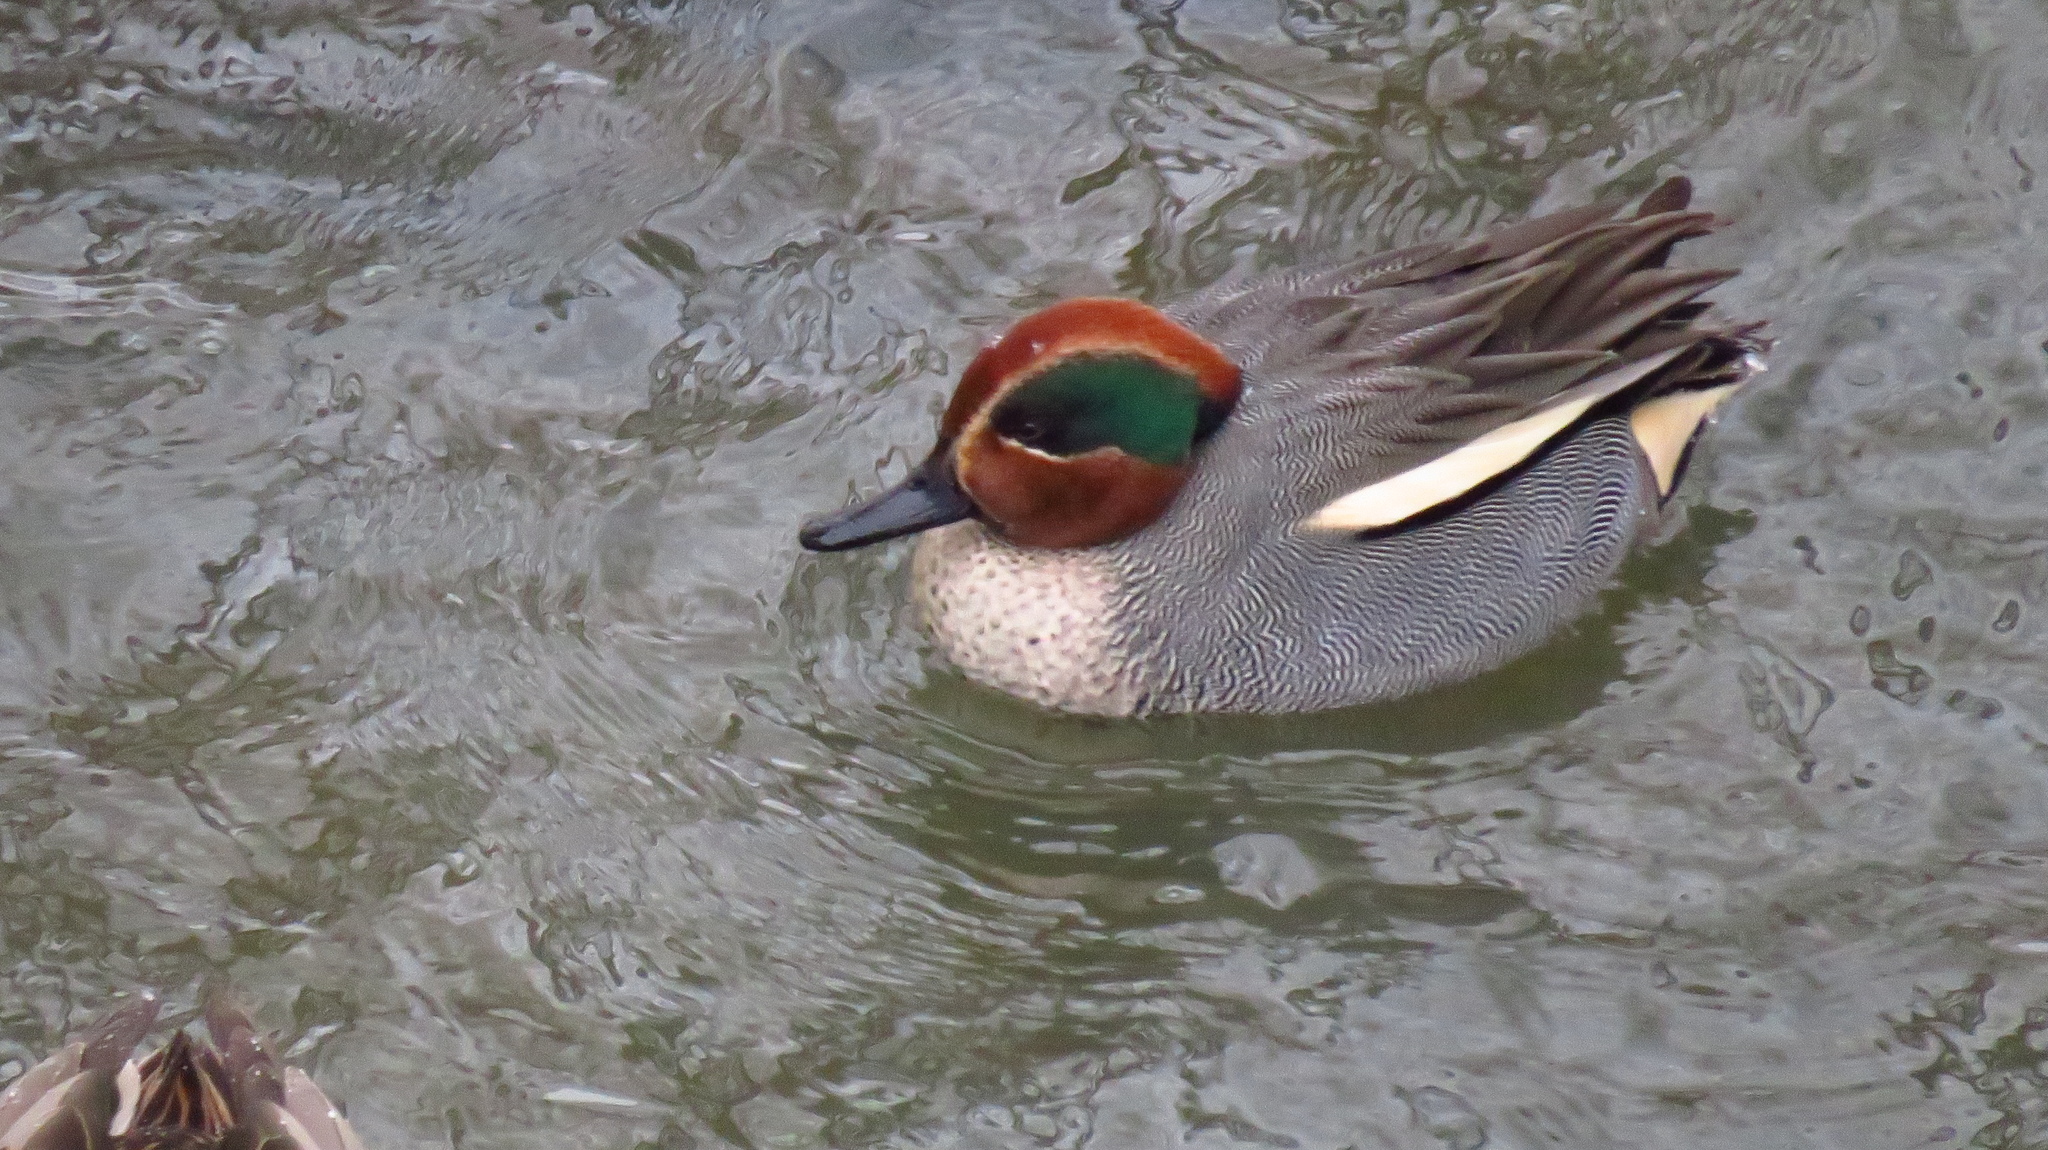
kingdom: Animalia
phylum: Chordata
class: Aves
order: Anseriformes
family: Anatidae
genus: Anas
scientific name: Anas crecca
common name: Eurasian teal
